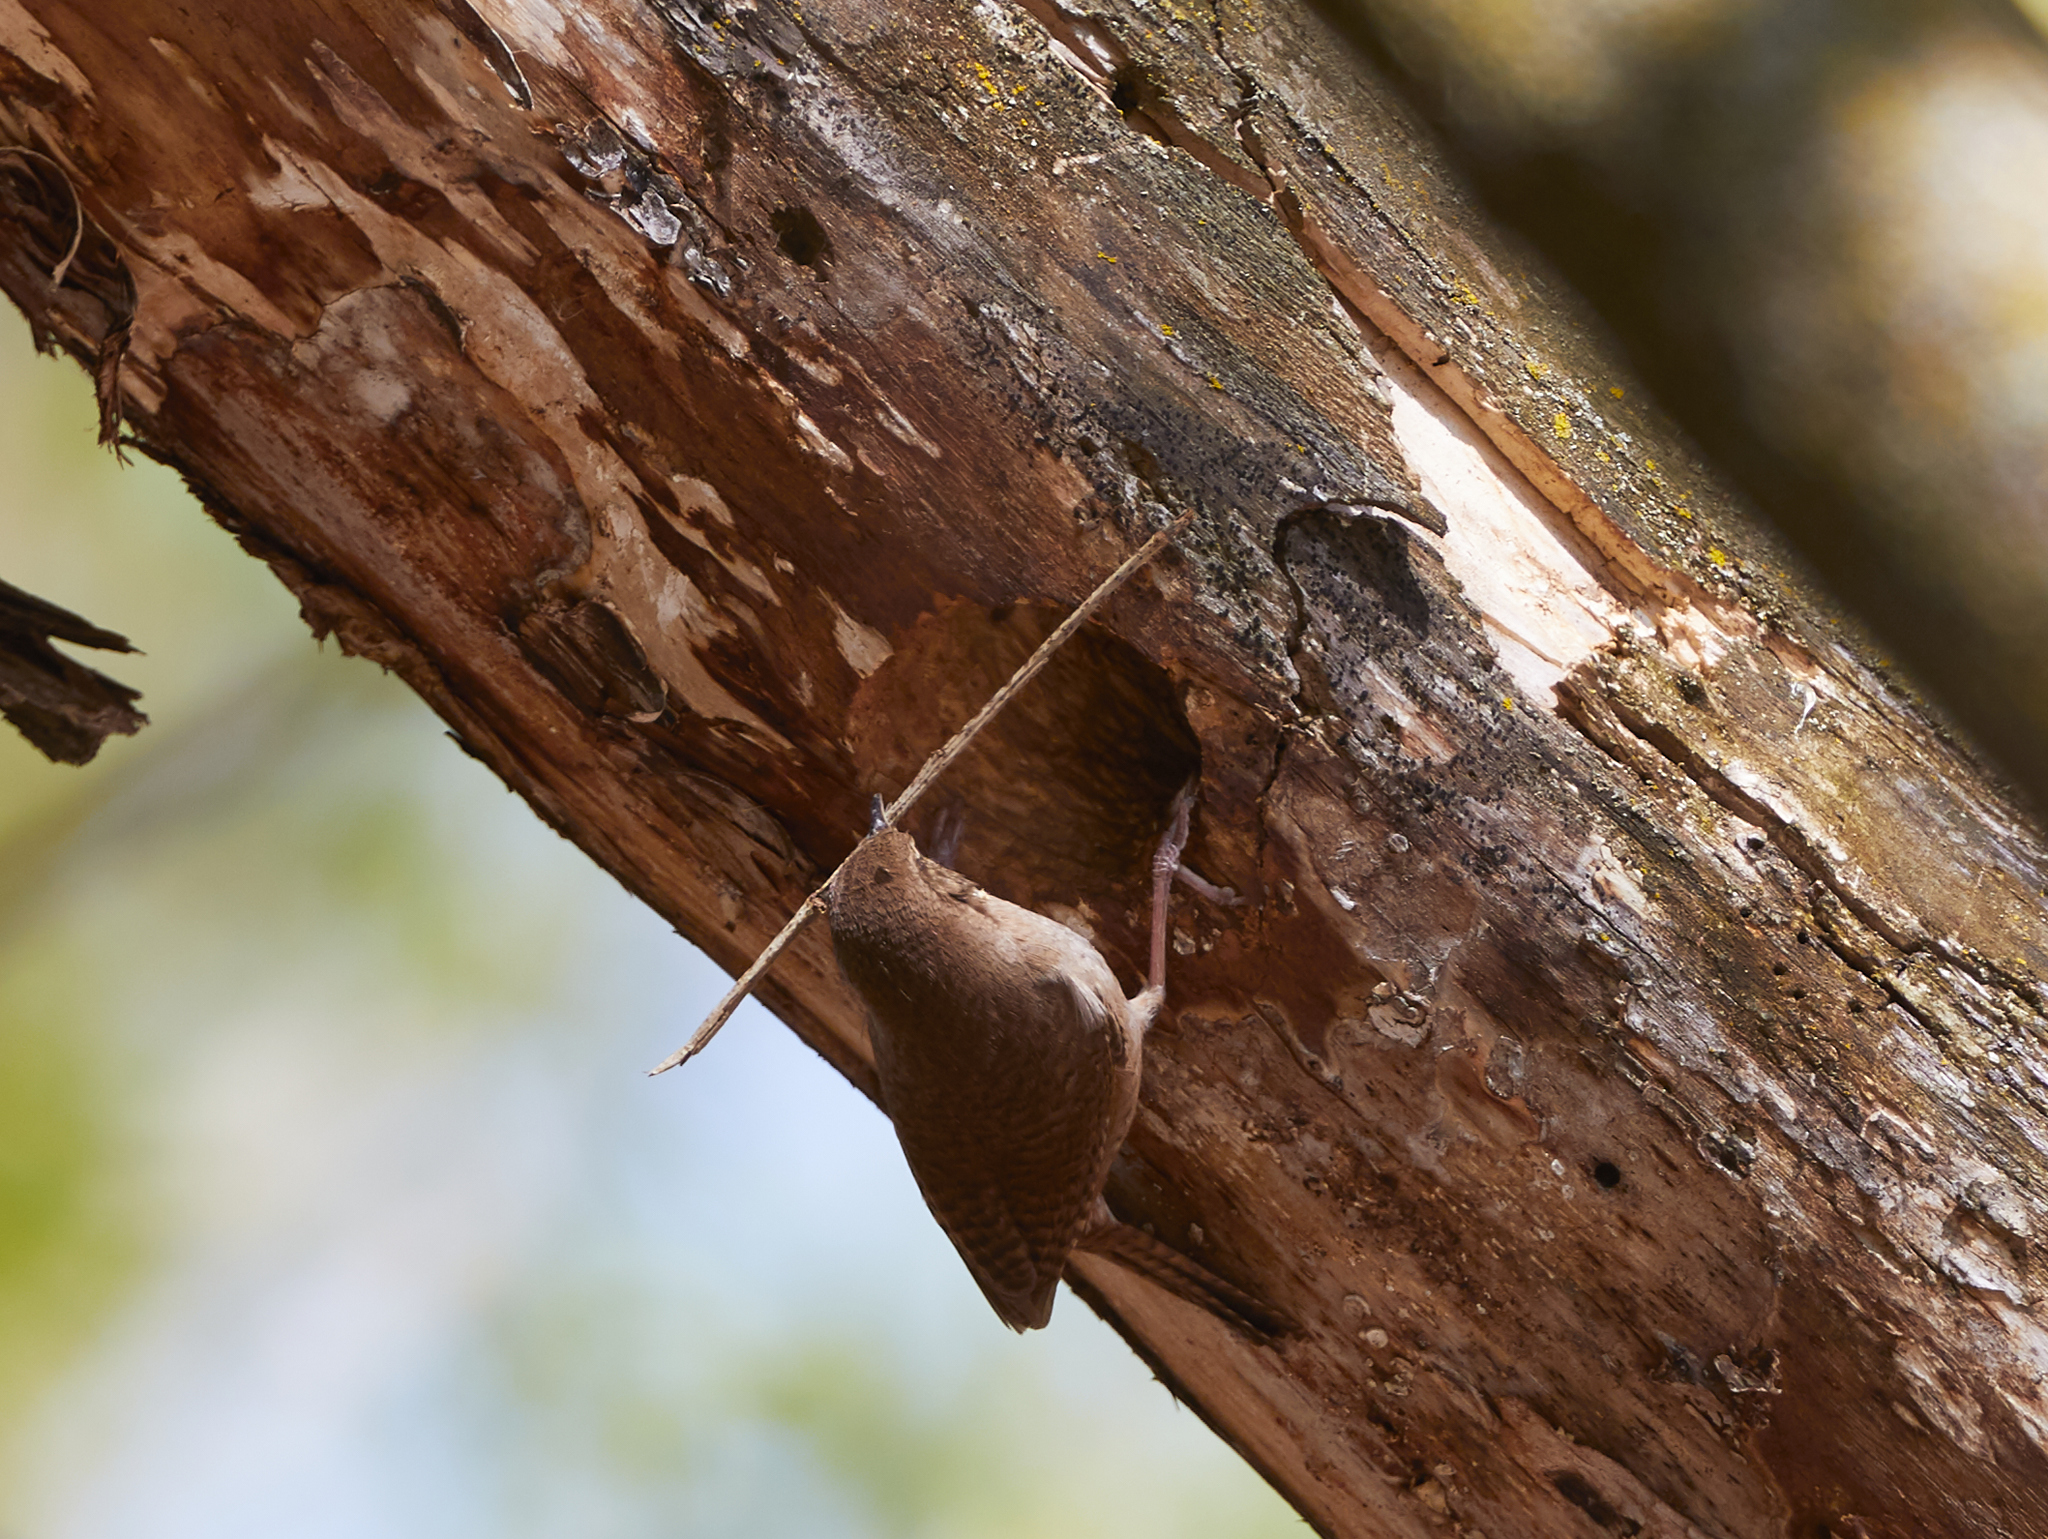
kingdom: Animalia
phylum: Chordata
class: Aves
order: Passeriformes
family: Troglodytidae
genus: Troglodytes
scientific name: Troglodytes aedon
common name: House wren
